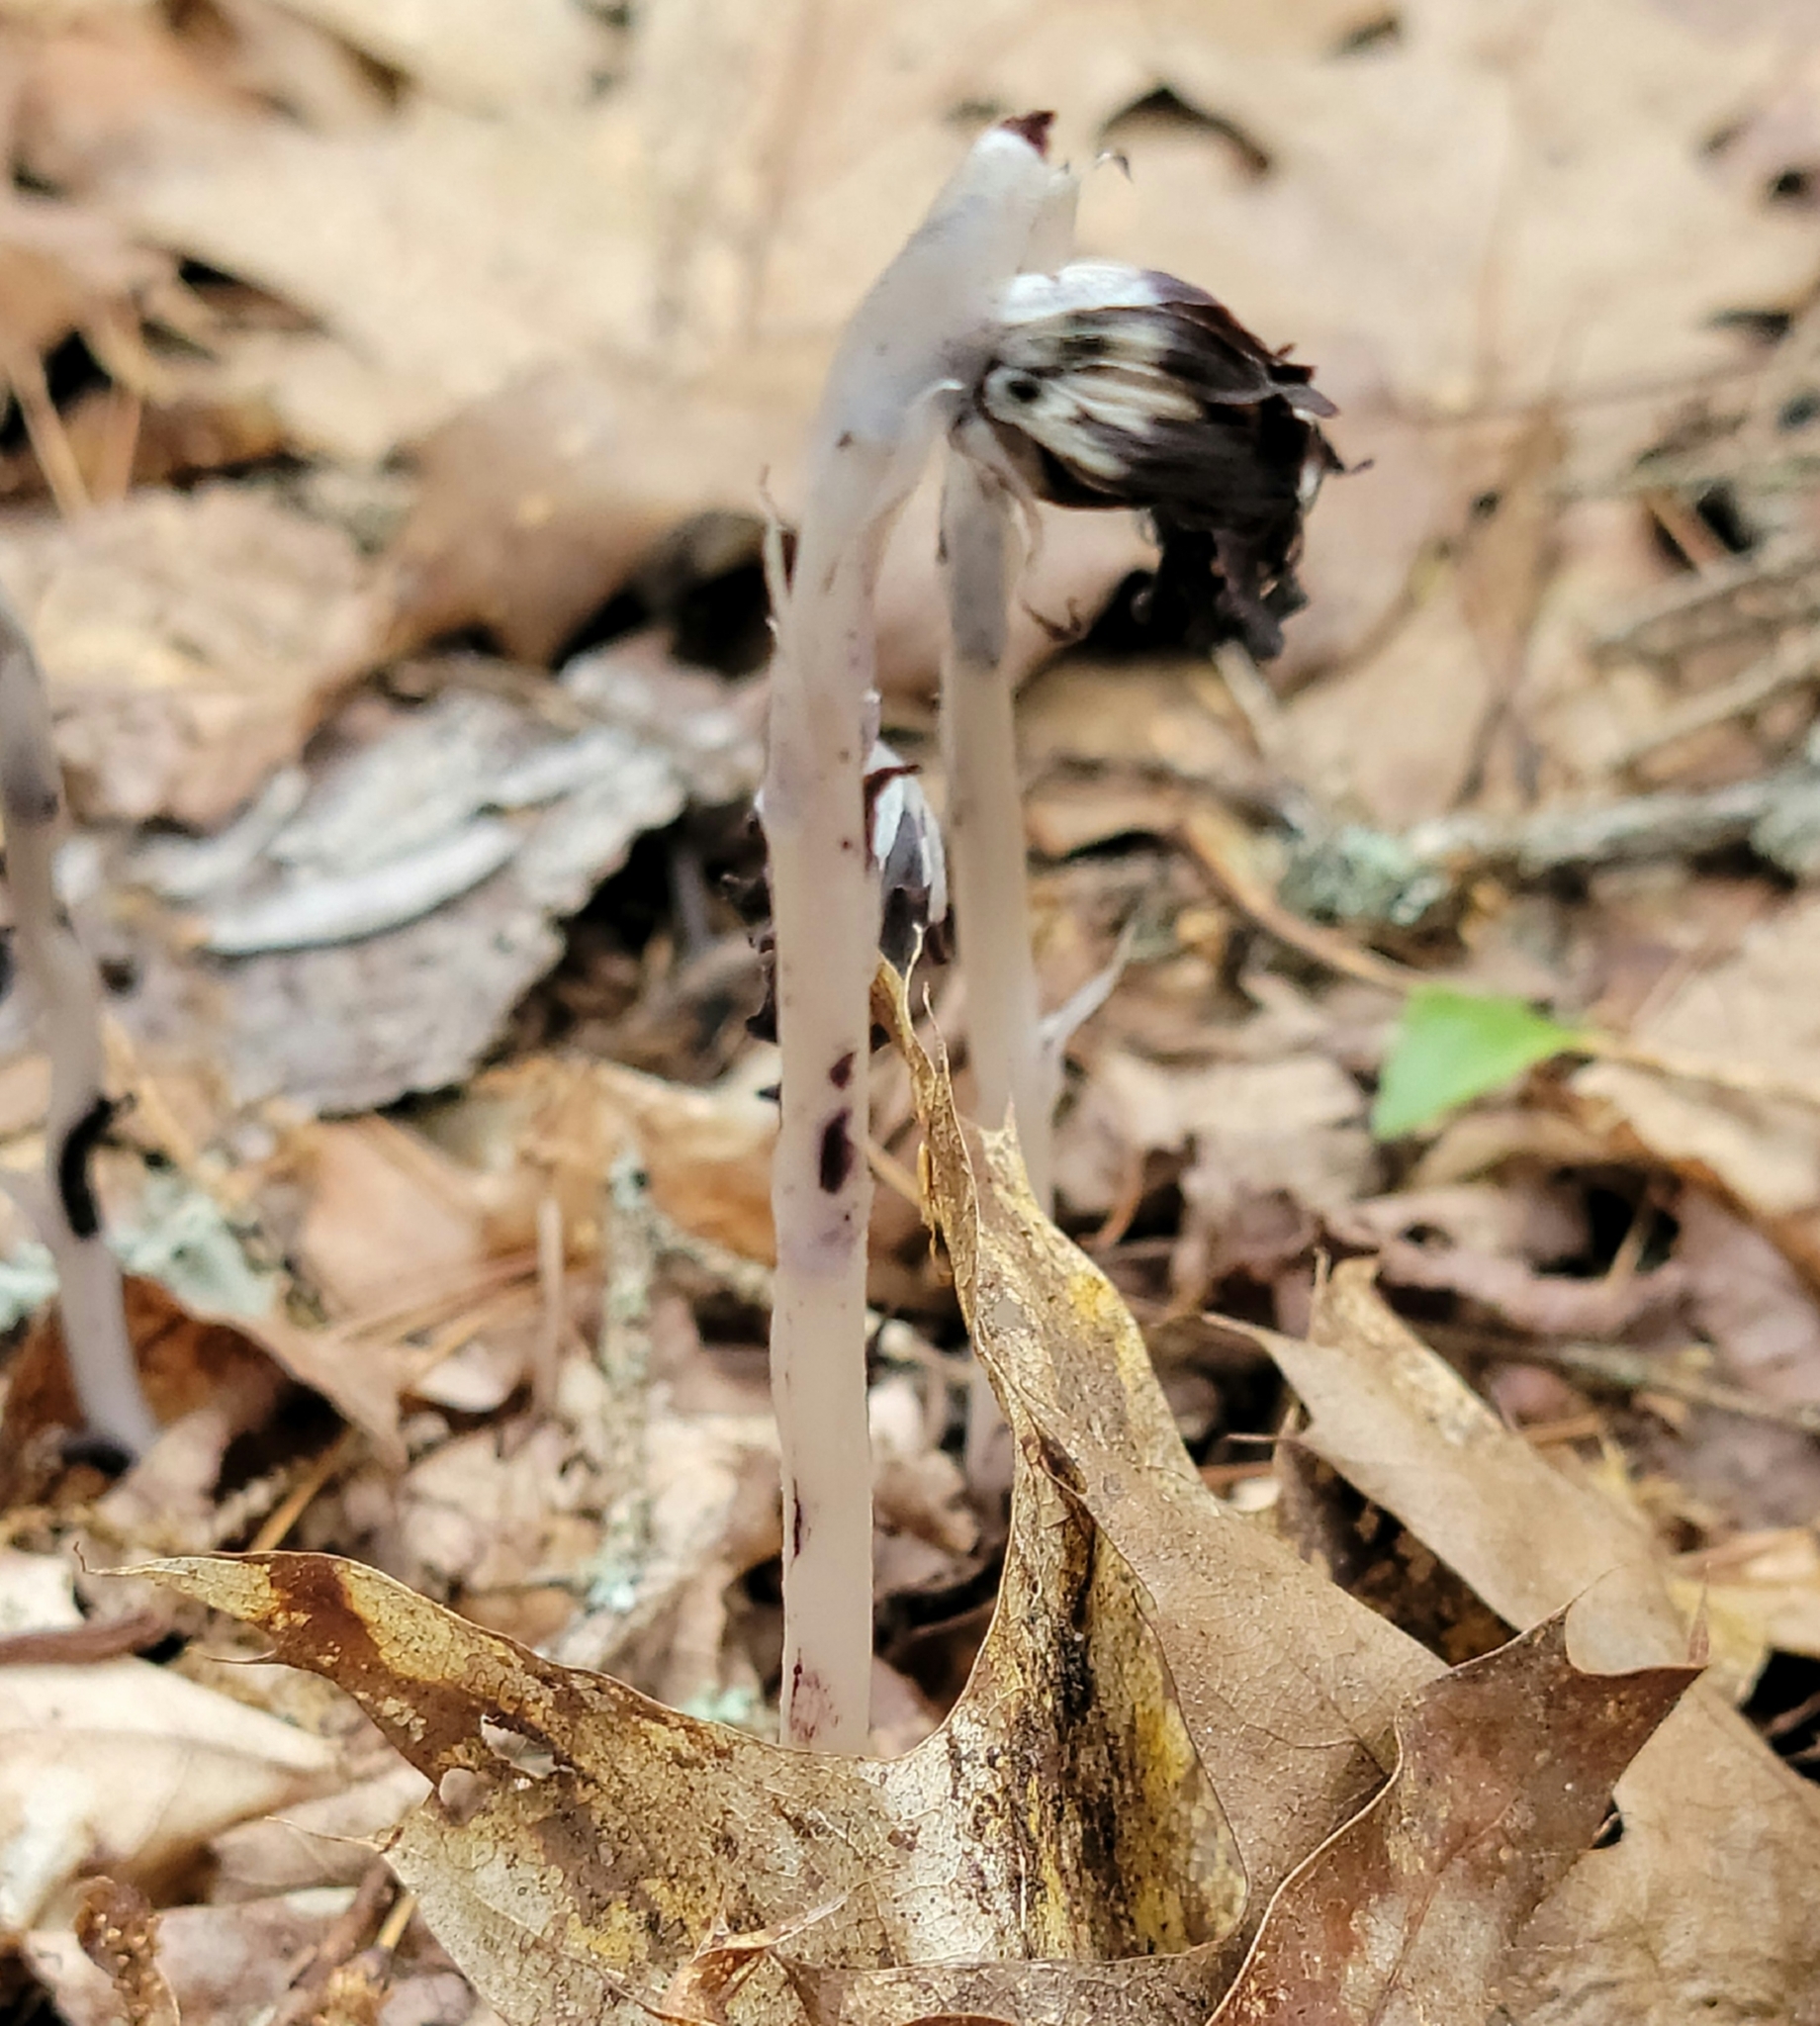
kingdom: Plantae
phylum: Tracheophyta
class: Magnoliopsida
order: Ericales
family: Ericaceae
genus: Monotropa
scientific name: Monotropa uniflora
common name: Convulsion root
